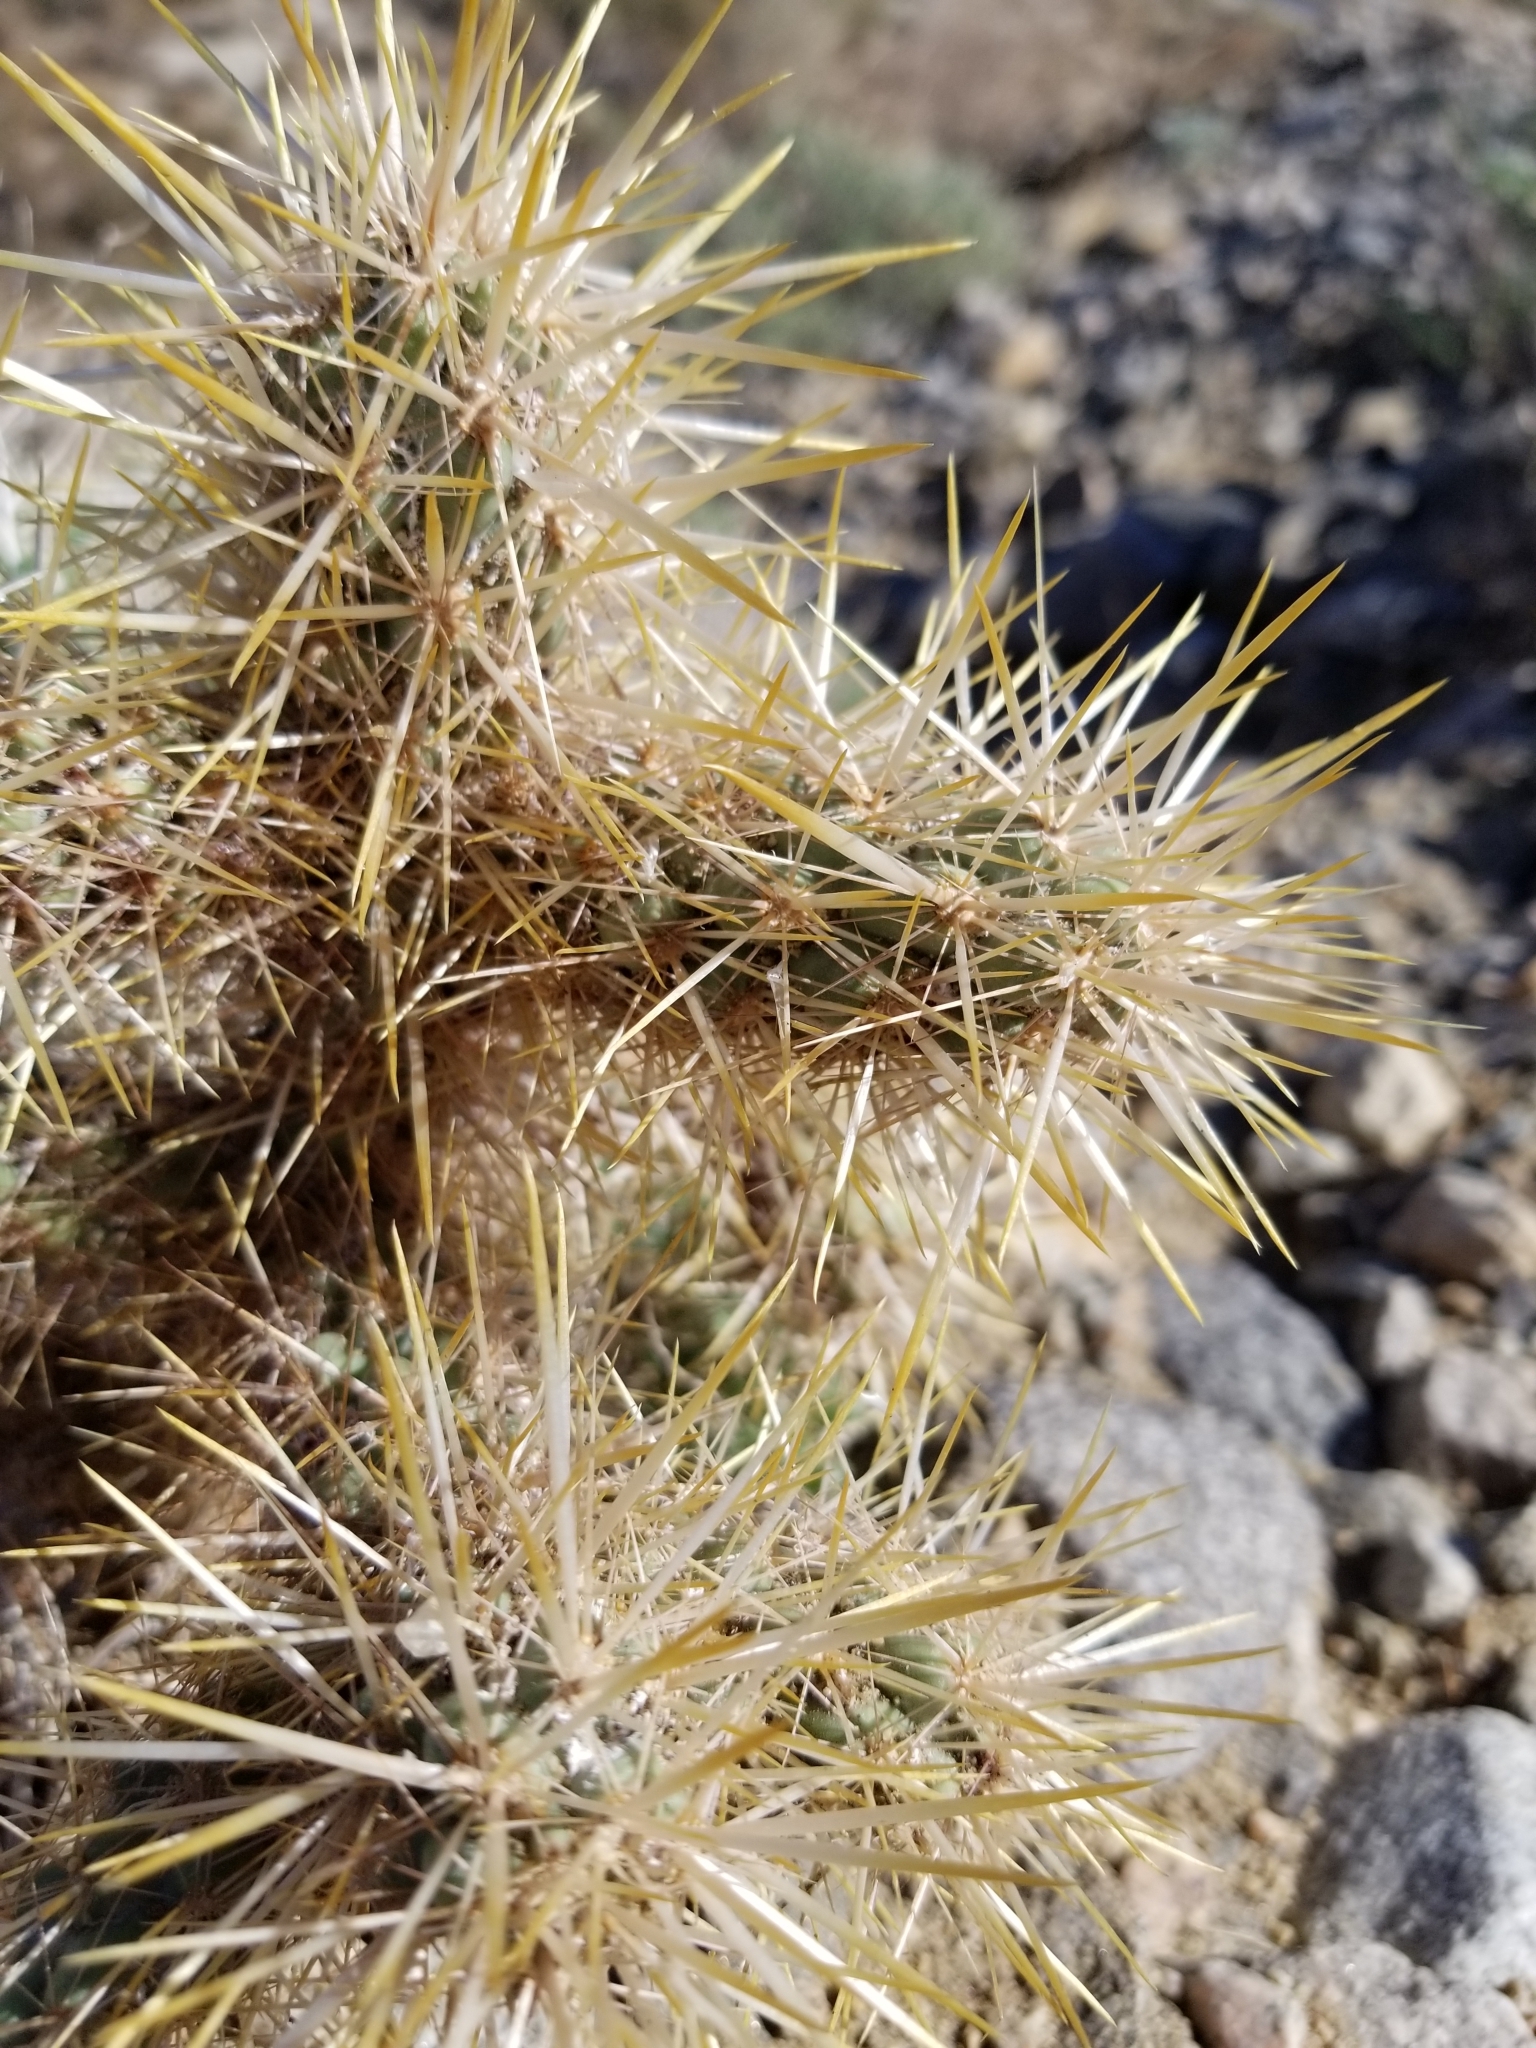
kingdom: Plantae
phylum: Tracheophyta
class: Magnoliopsida
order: Caryophyllales
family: Cactaceae
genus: Cylindropuntia
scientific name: Cylindropuntia echinocarpa
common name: Ground cholla
